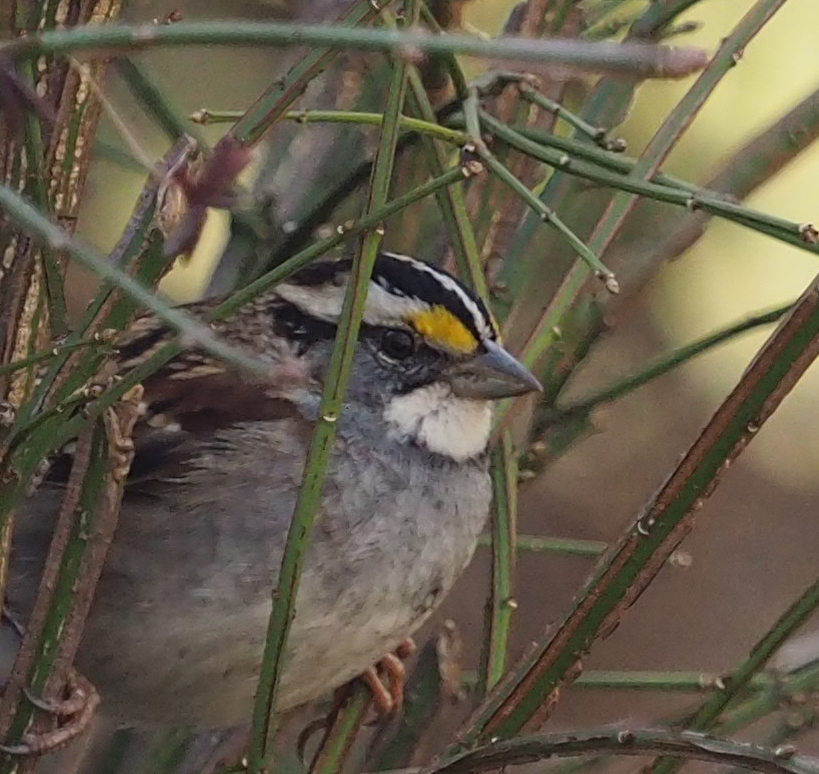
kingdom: Animalia
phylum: Chordata
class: Aves
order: Passeriformes
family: Passerellidae
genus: Zonotrichia
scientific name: Zonotrichia albicollis
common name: White-throated sparrow
